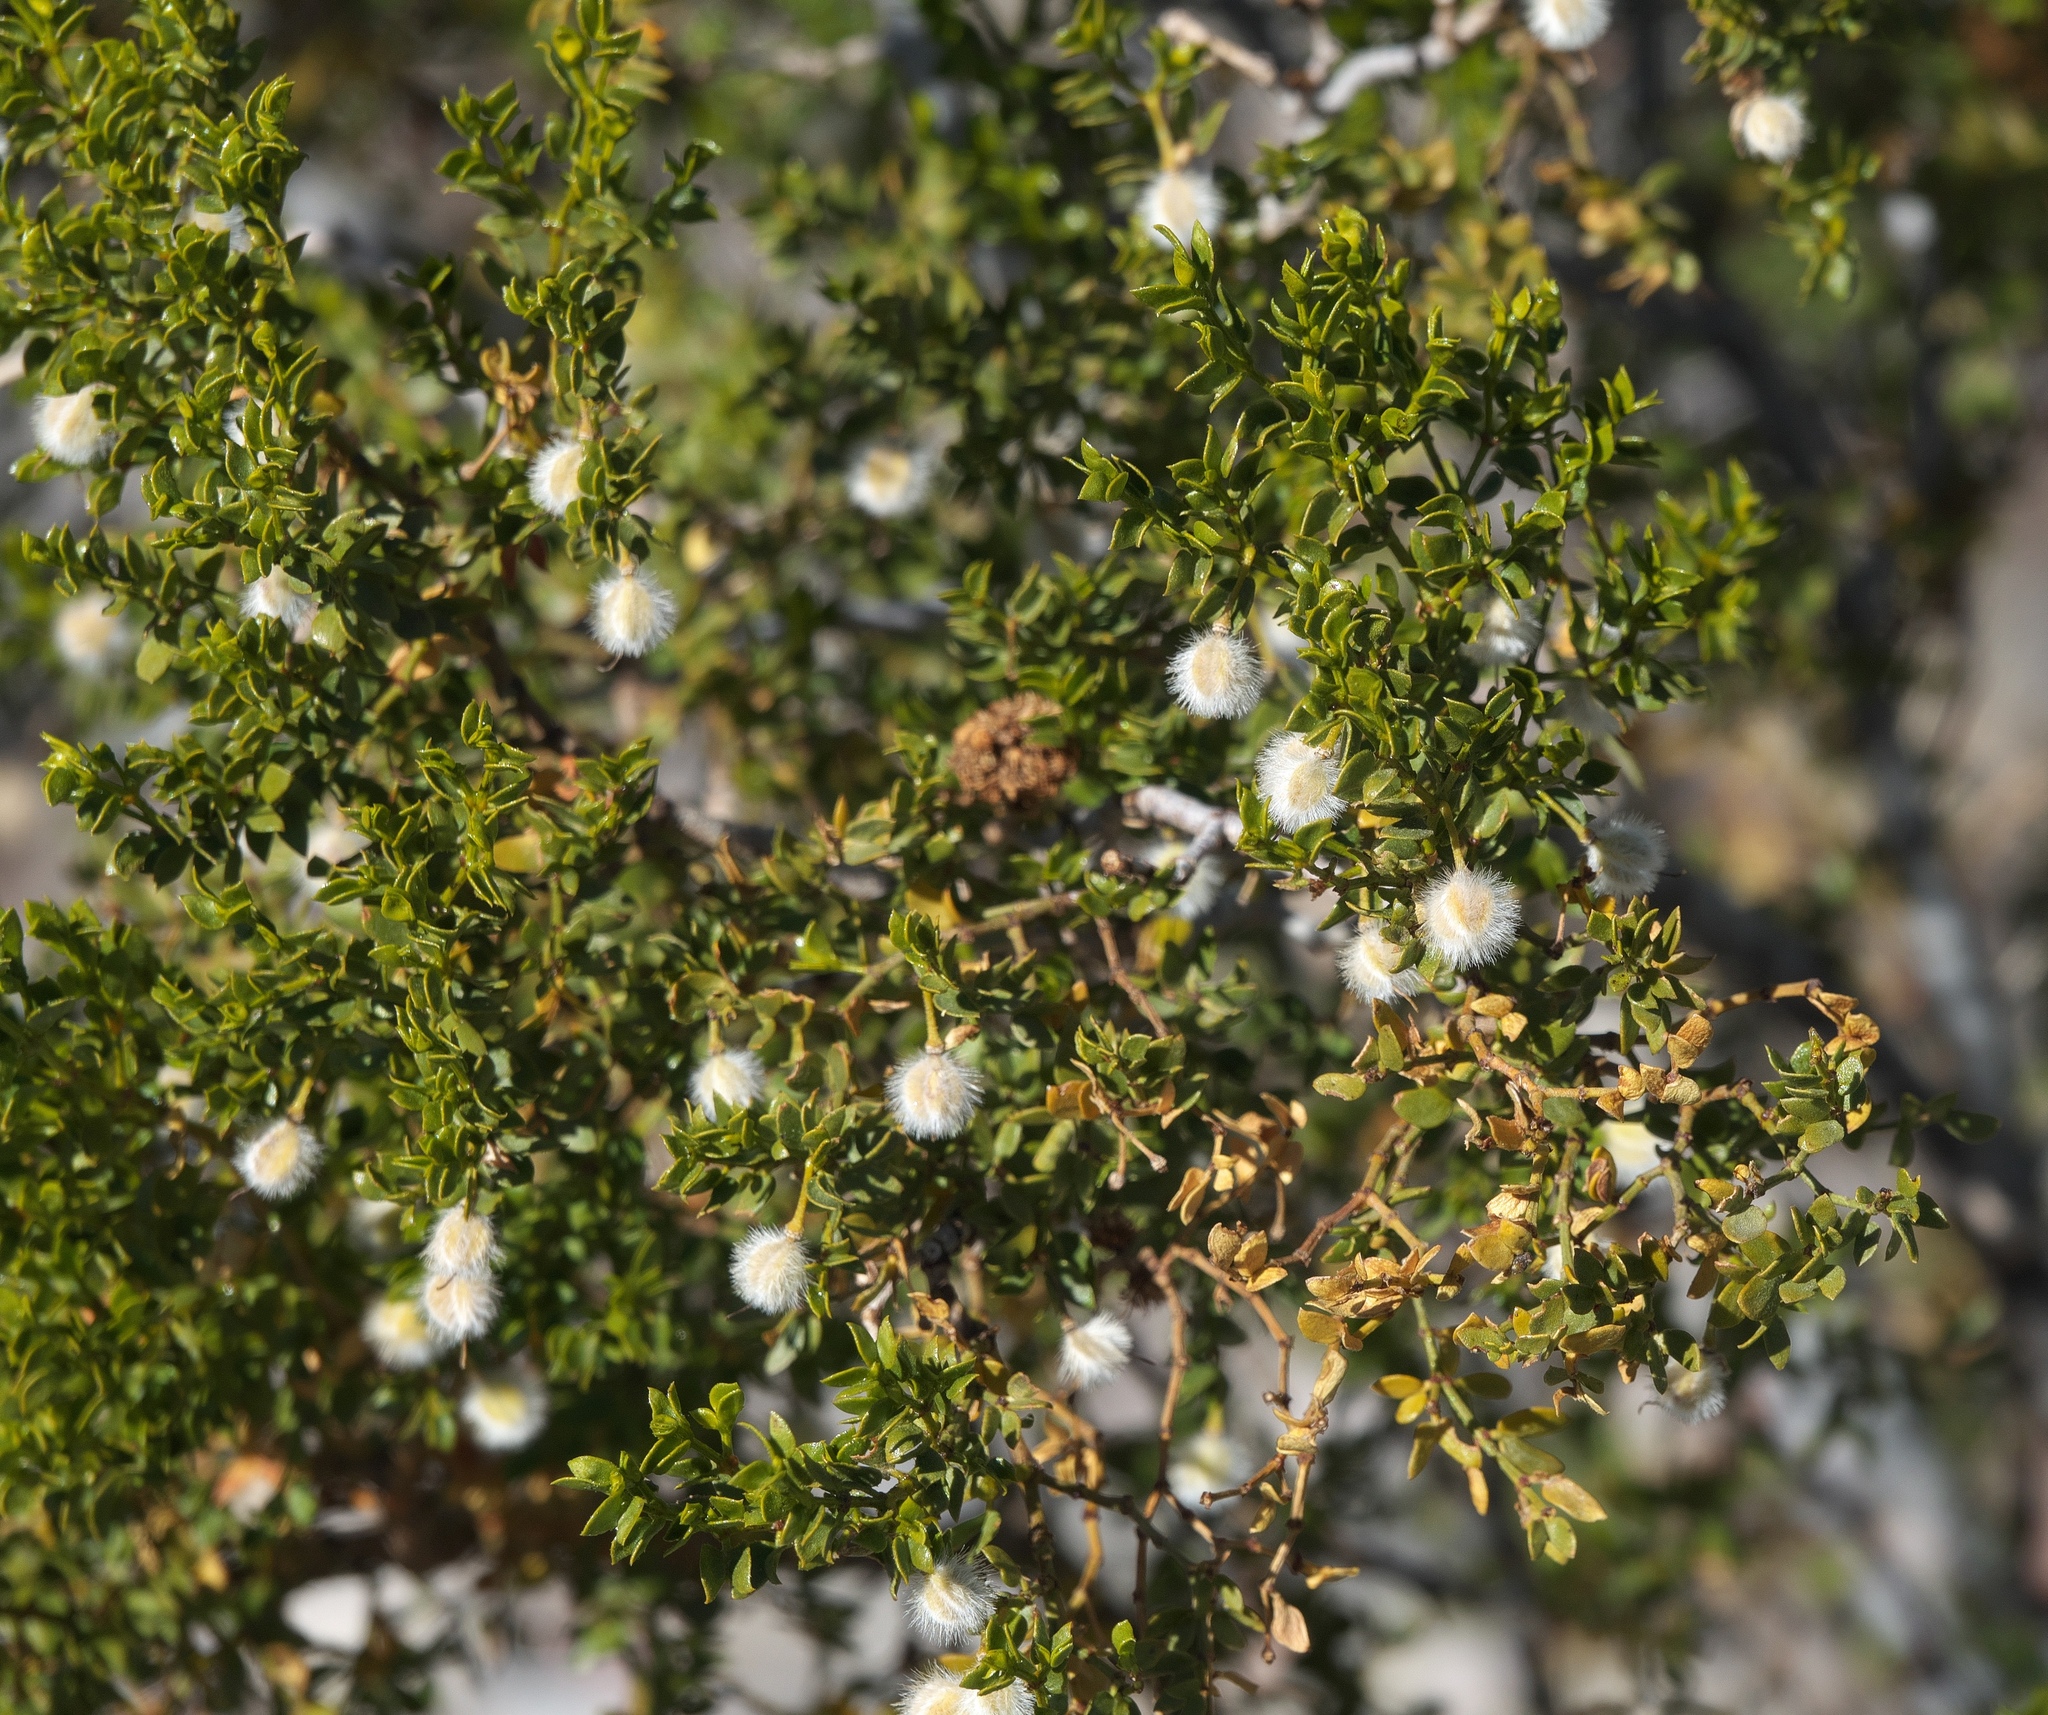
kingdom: Plantae
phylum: Tracheophyta
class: Magnoliopsida
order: Zygophyllales
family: Zygophyllaceae
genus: Larrea
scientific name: Larrea tridentata
